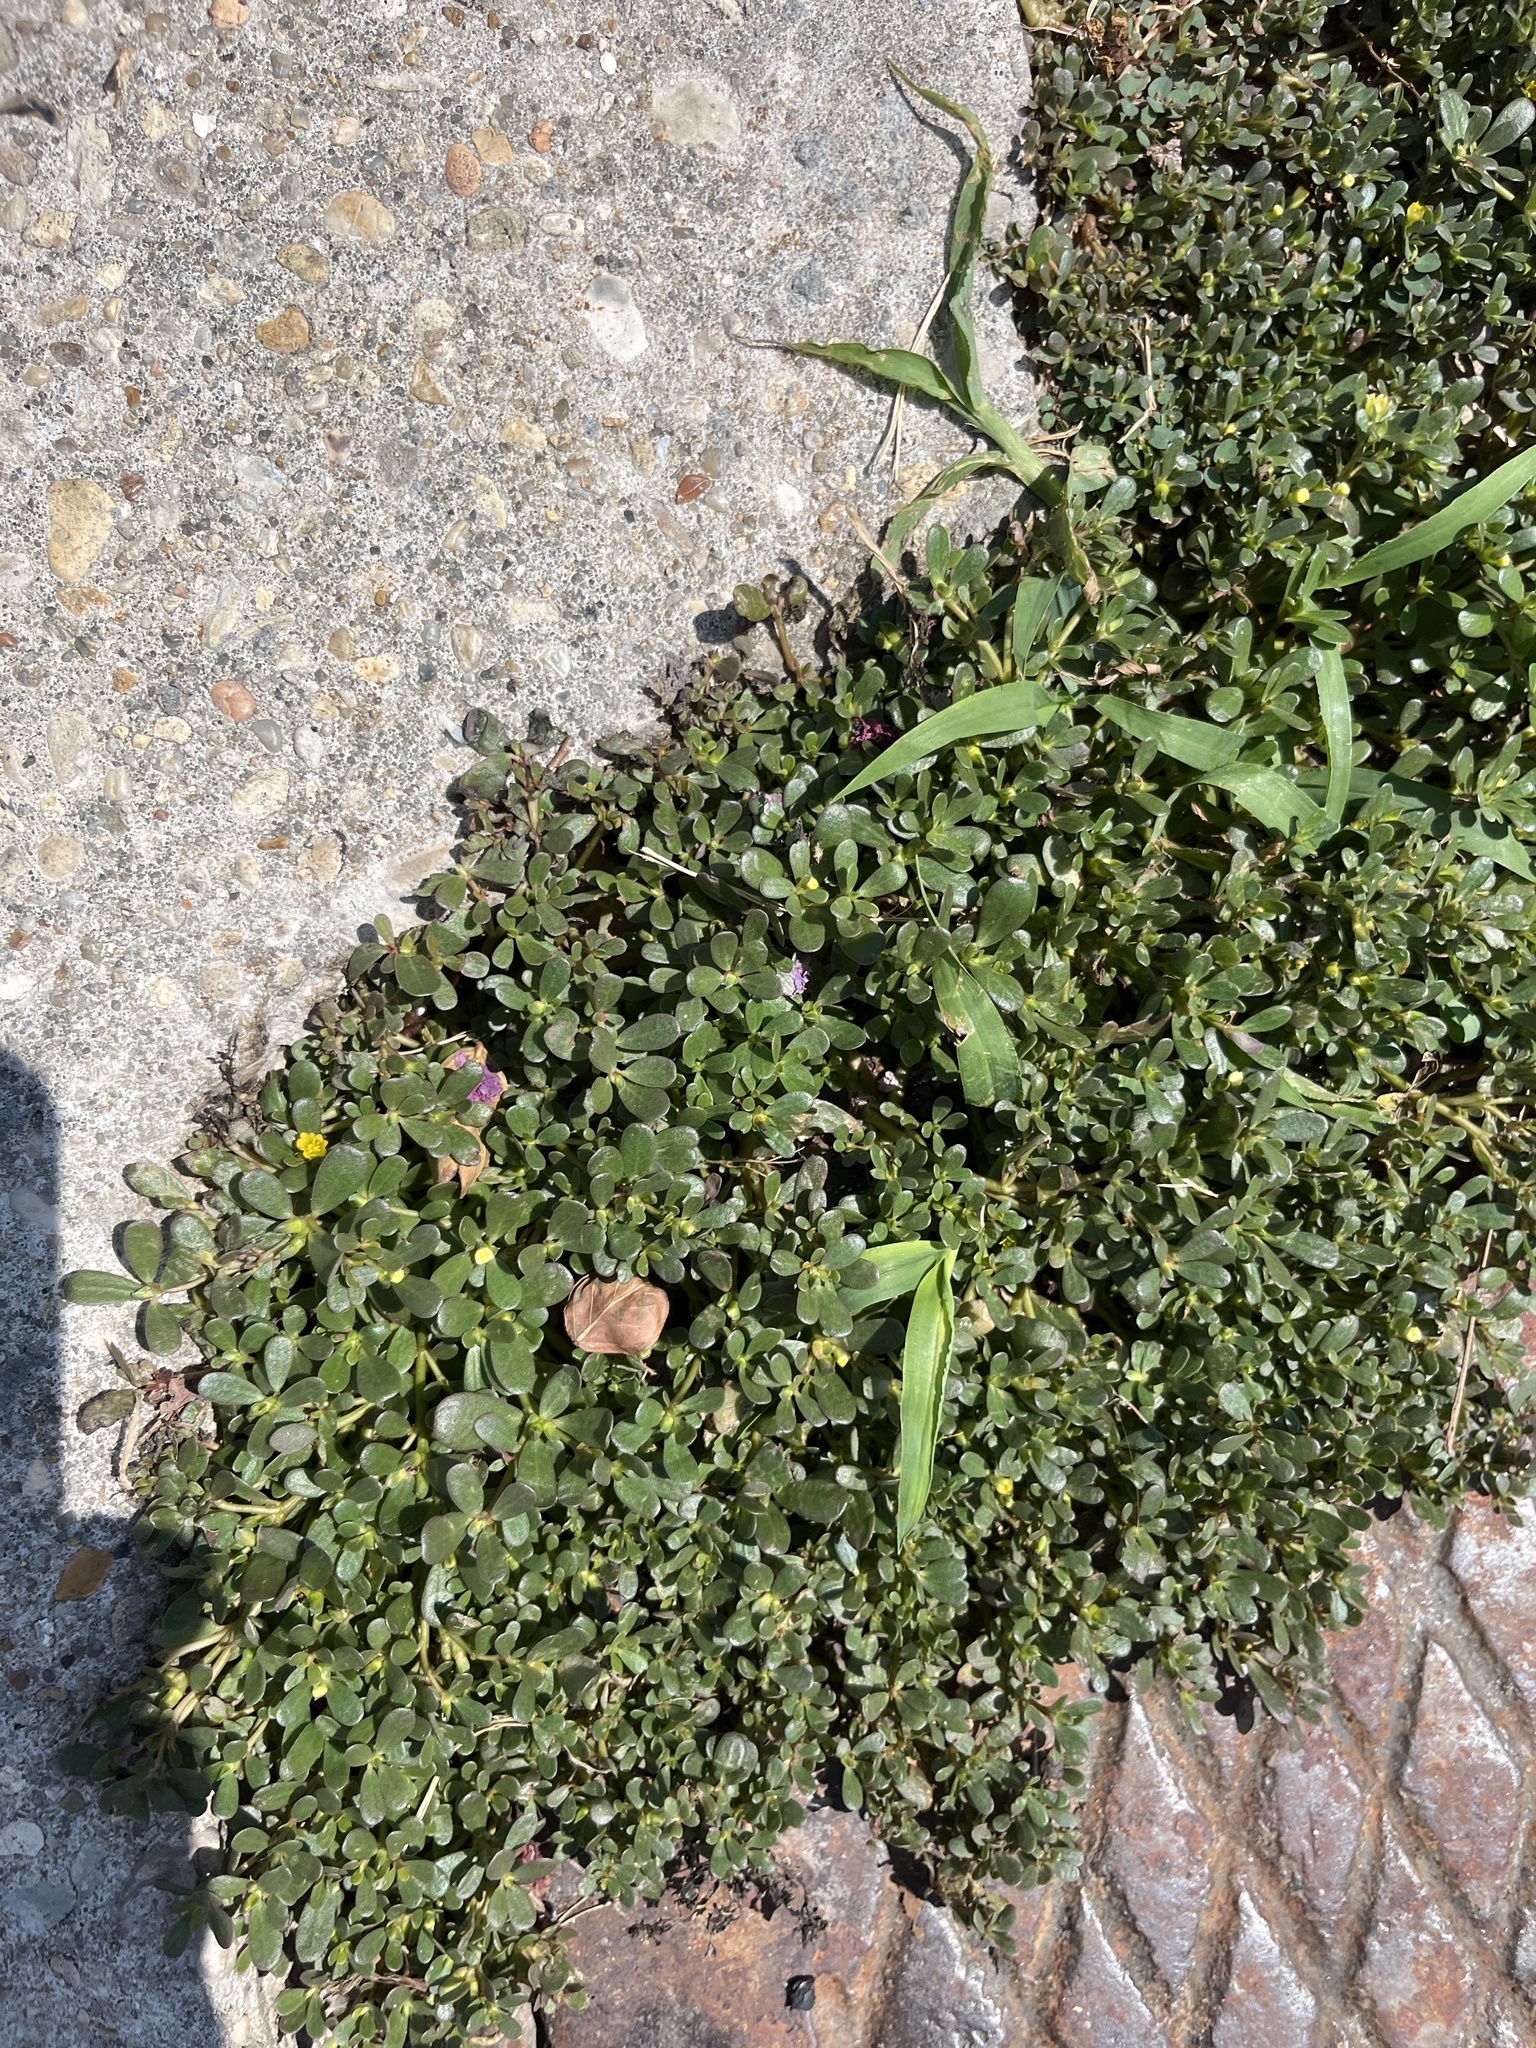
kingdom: Plantae
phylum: Tracheophyta
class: Magnoliopsida
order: Caryophyllales
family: Portulacaceae
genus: Portulaca
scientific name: Portulaca oleracea
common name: Common purslane
